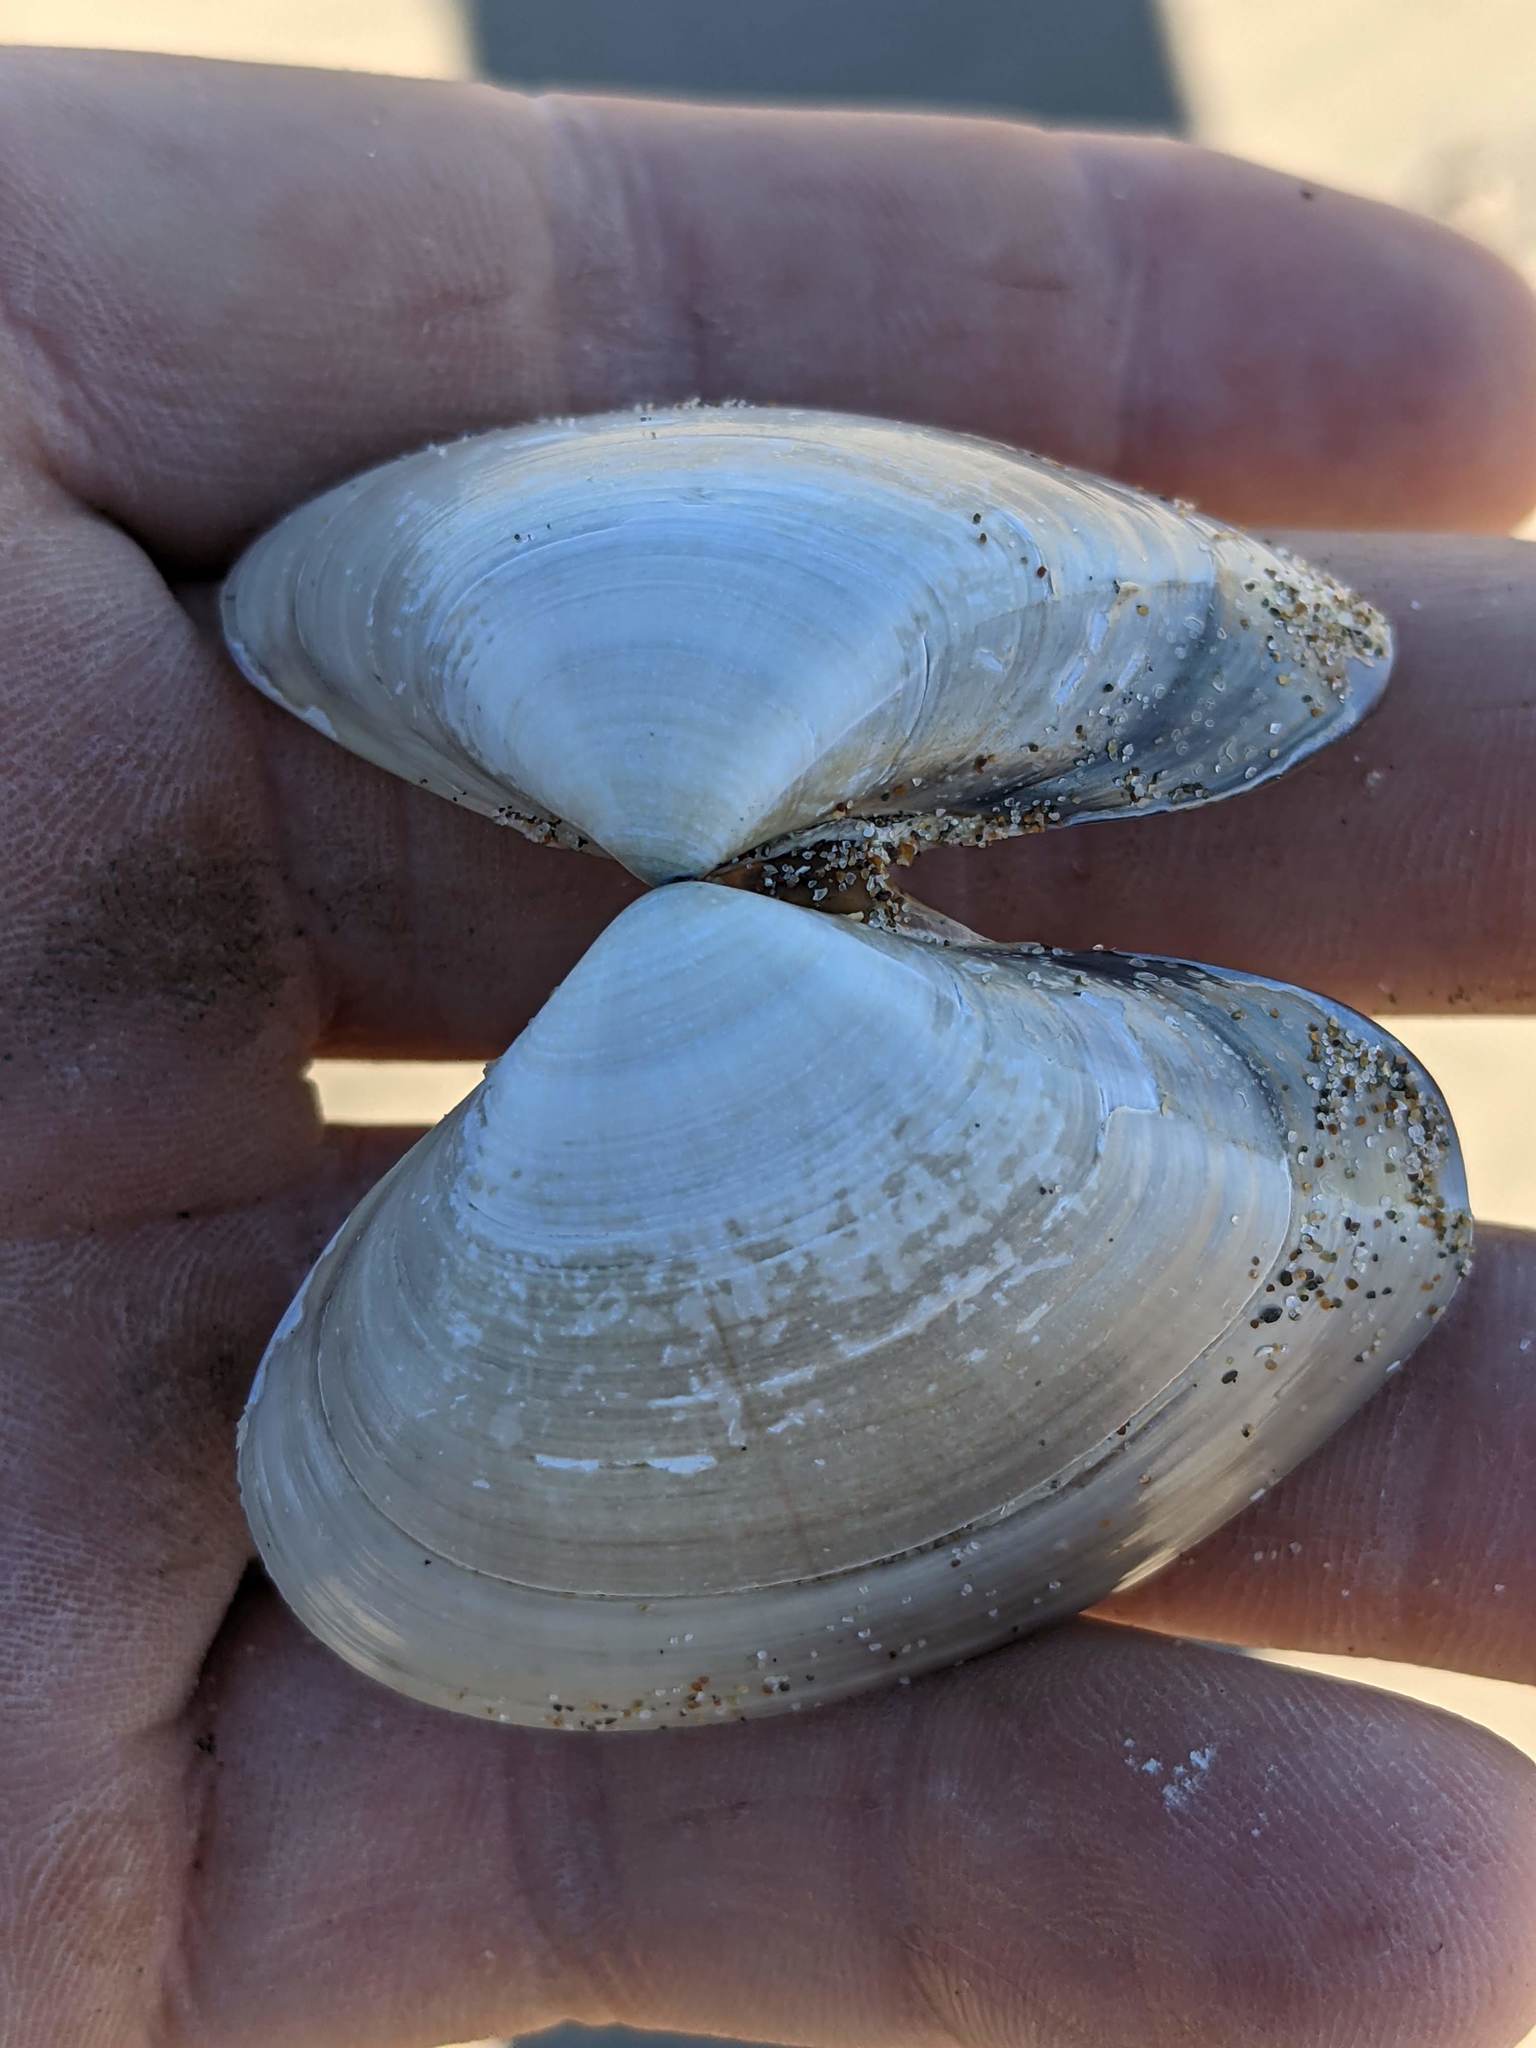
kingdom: Animalia
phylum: Mollusca
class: Bivalvia
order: Venerida
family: Veneridae
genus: Tivela
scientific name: Tivela stultorum
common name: Pismo clam
